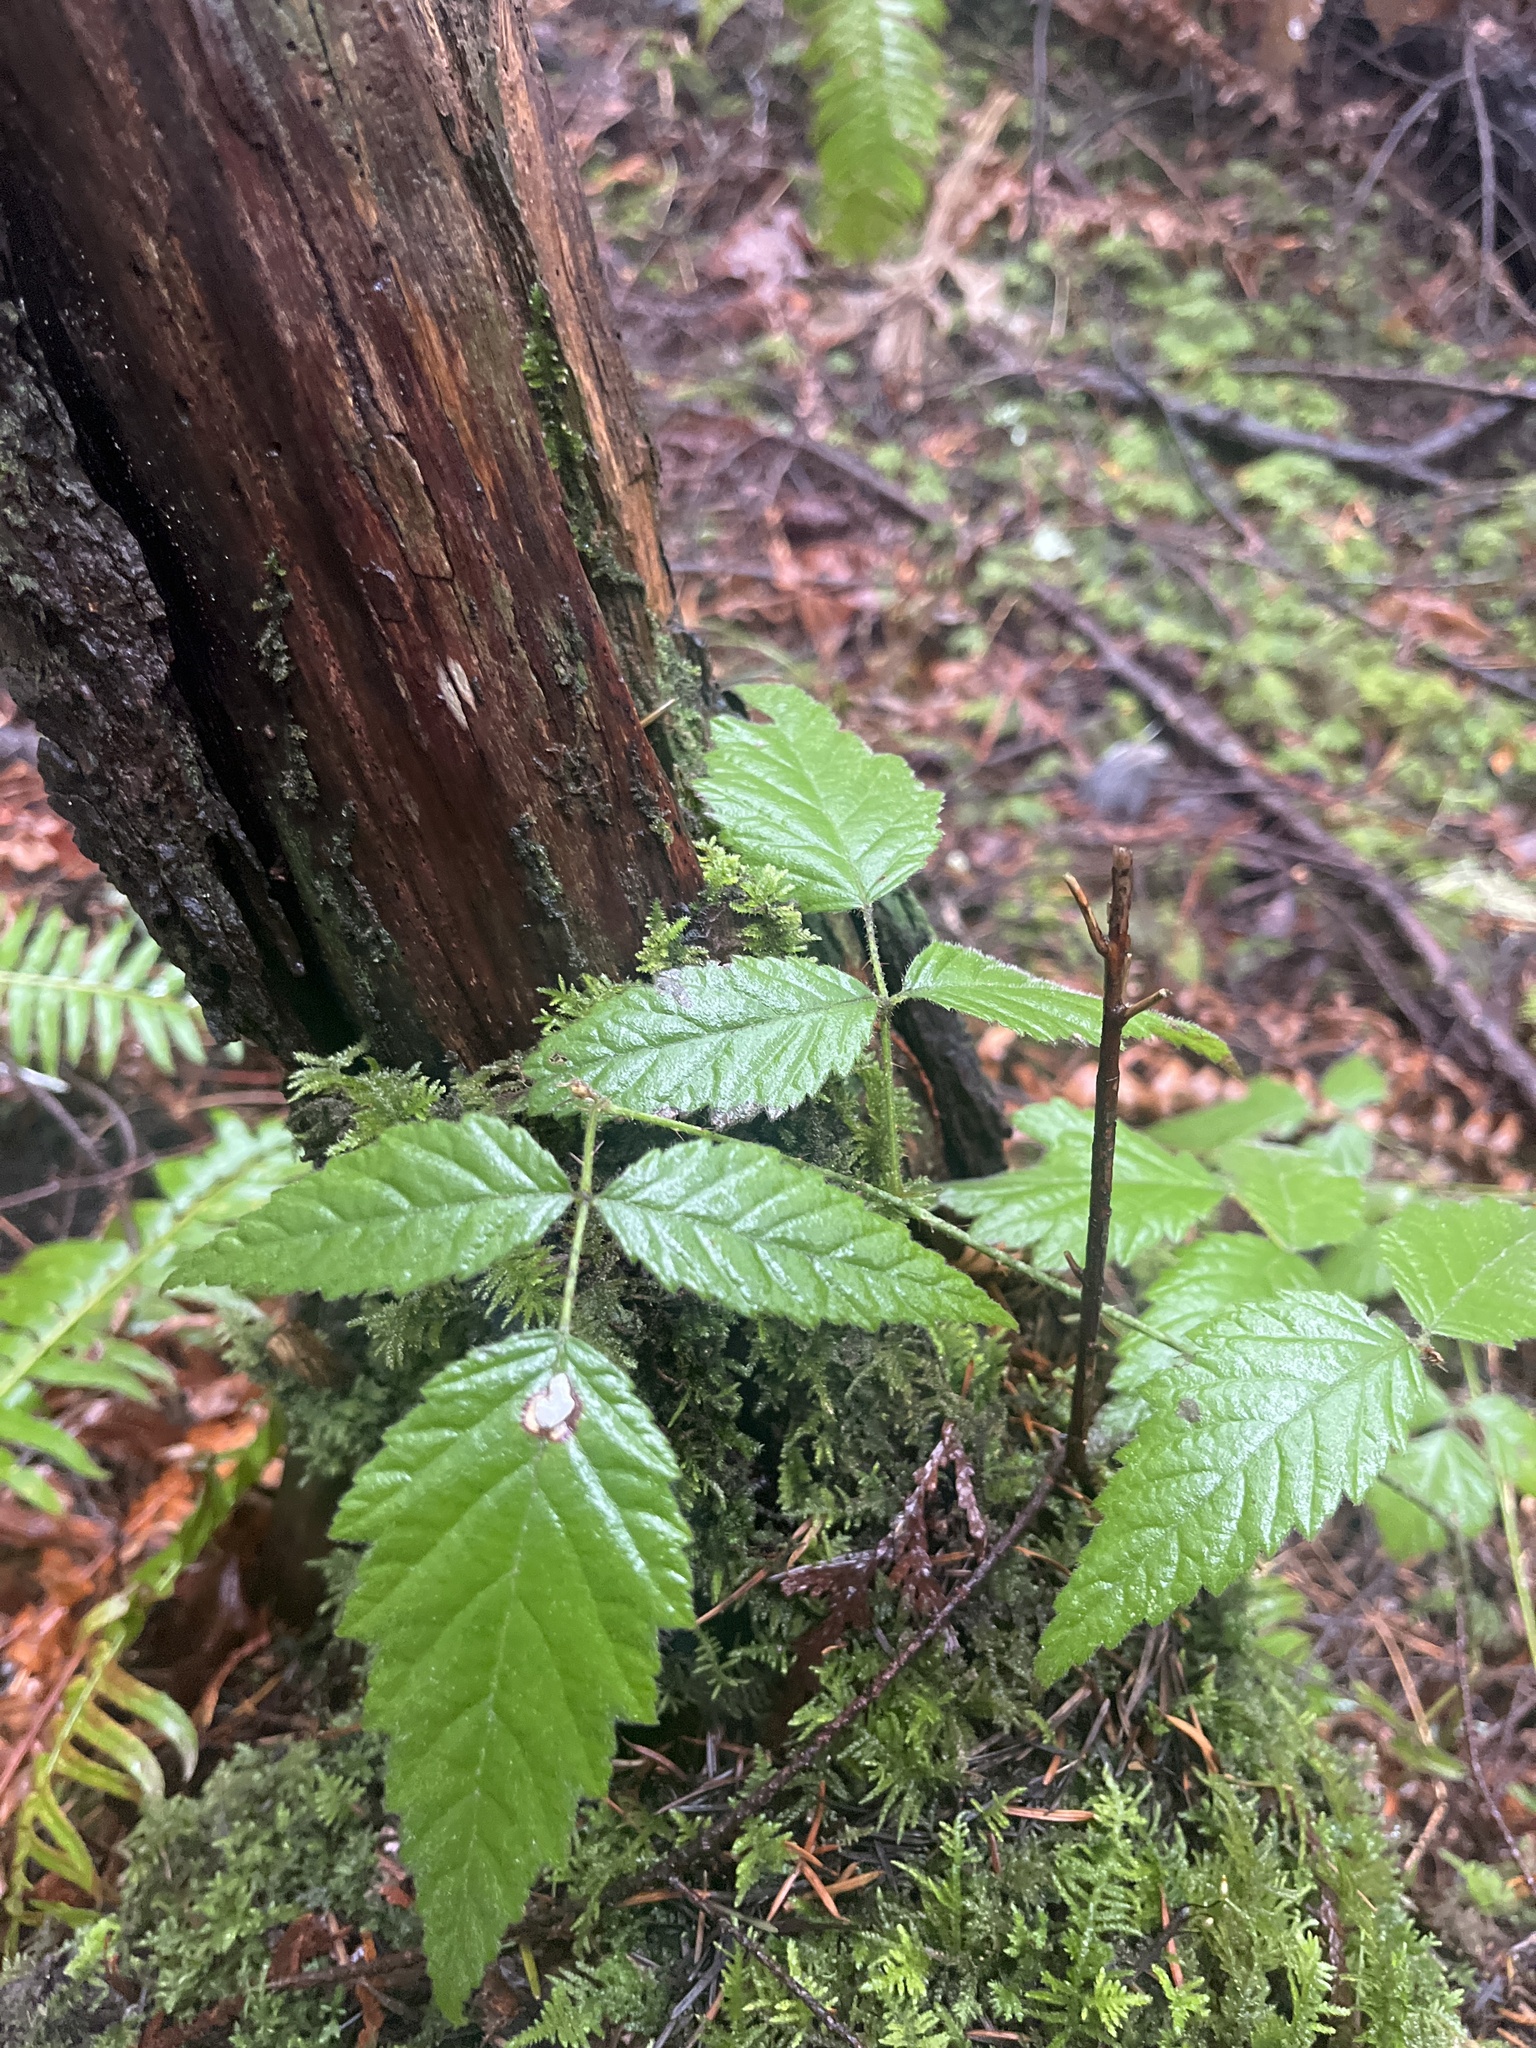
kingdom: Plantae
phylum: Tracheophyta
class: Magnoliopsida
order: Rosales
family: Rosaceae
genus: Rubus
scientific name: Rubus ursinus
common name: Pacific blackberry
